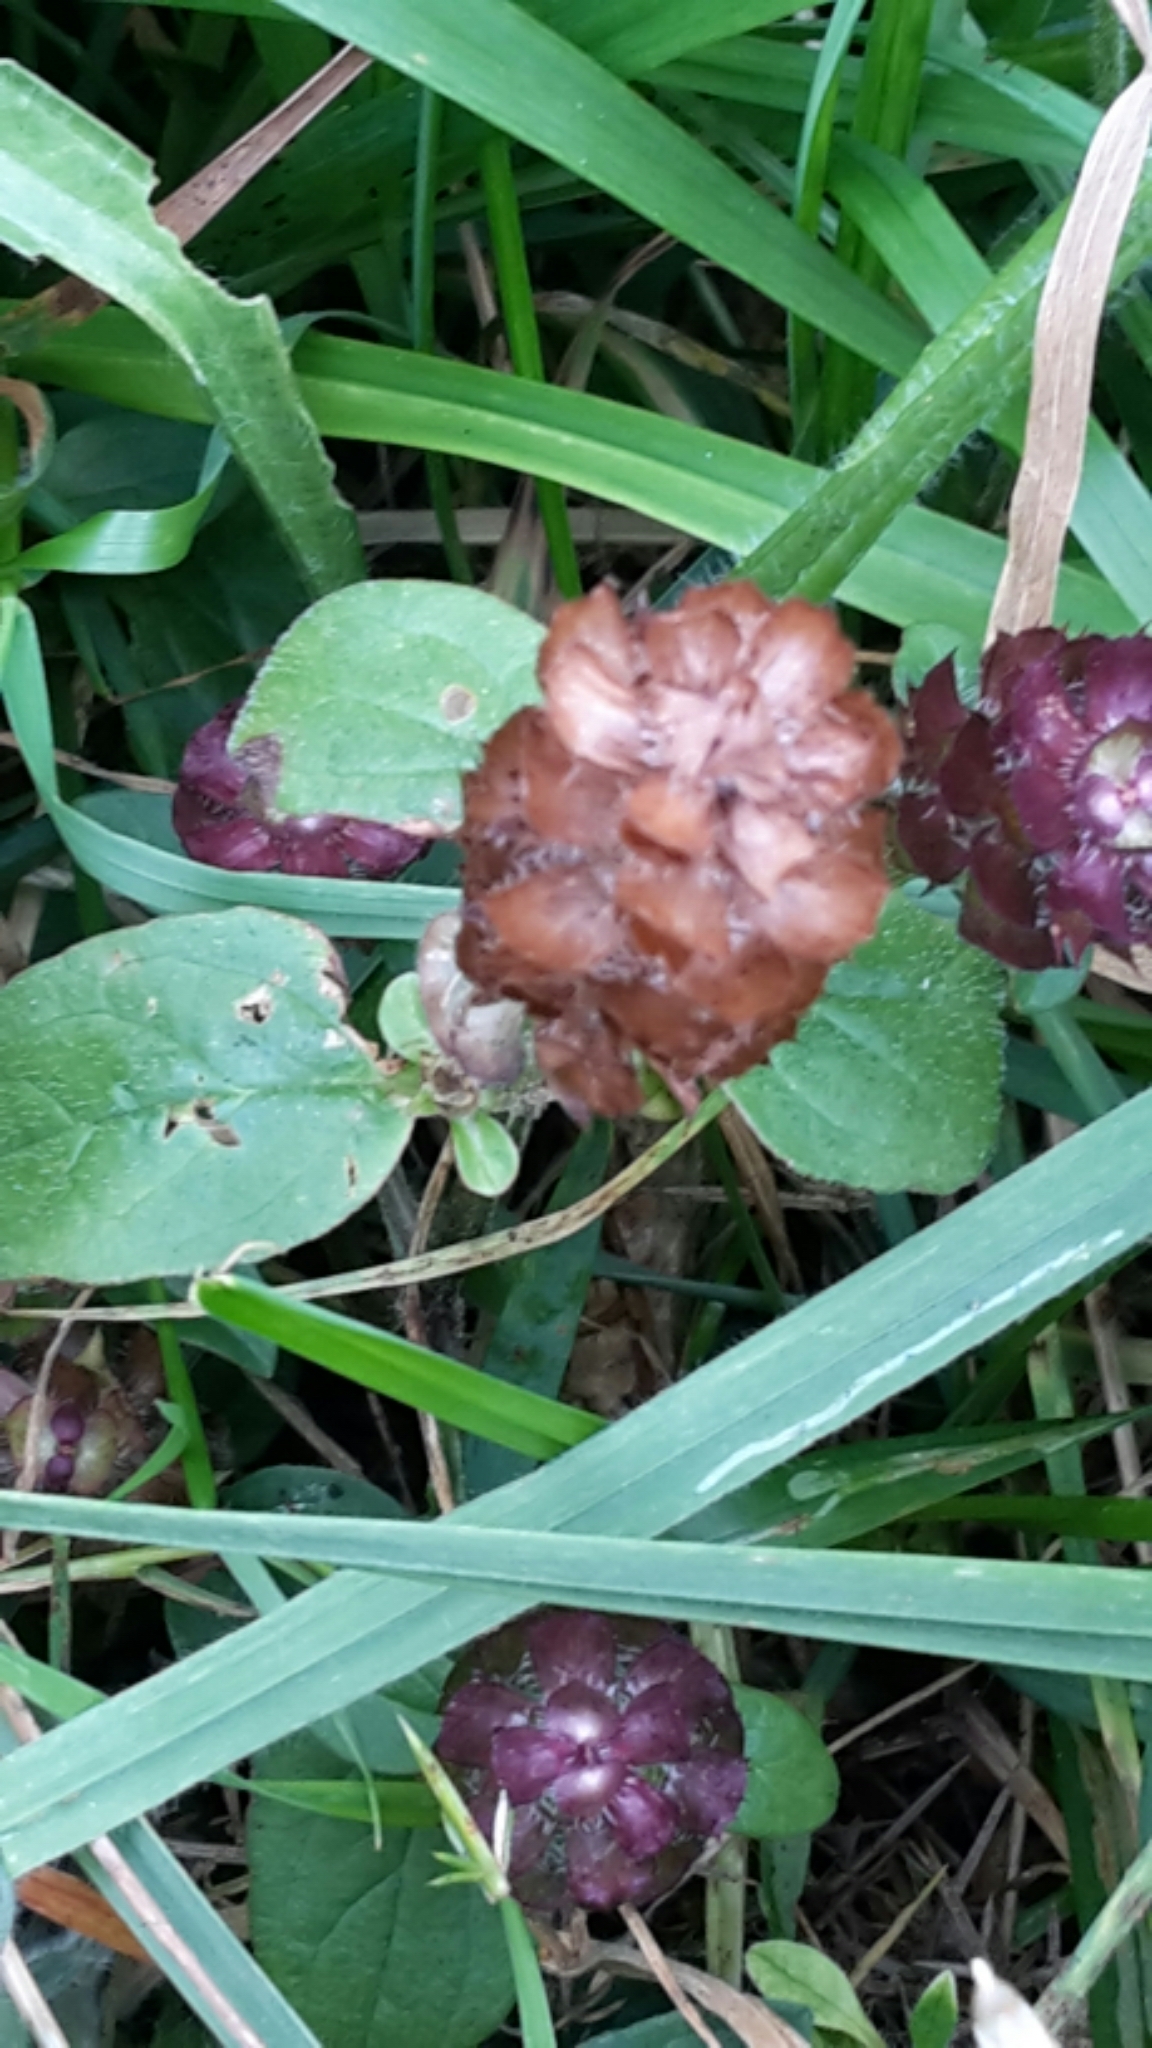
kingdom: Plantae
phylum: Tracheophyta
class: Magnoliopsida
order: Lamiales
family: Lamiaceae
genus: Prunella
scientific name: Prunella vulgaris
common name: Heal-all
